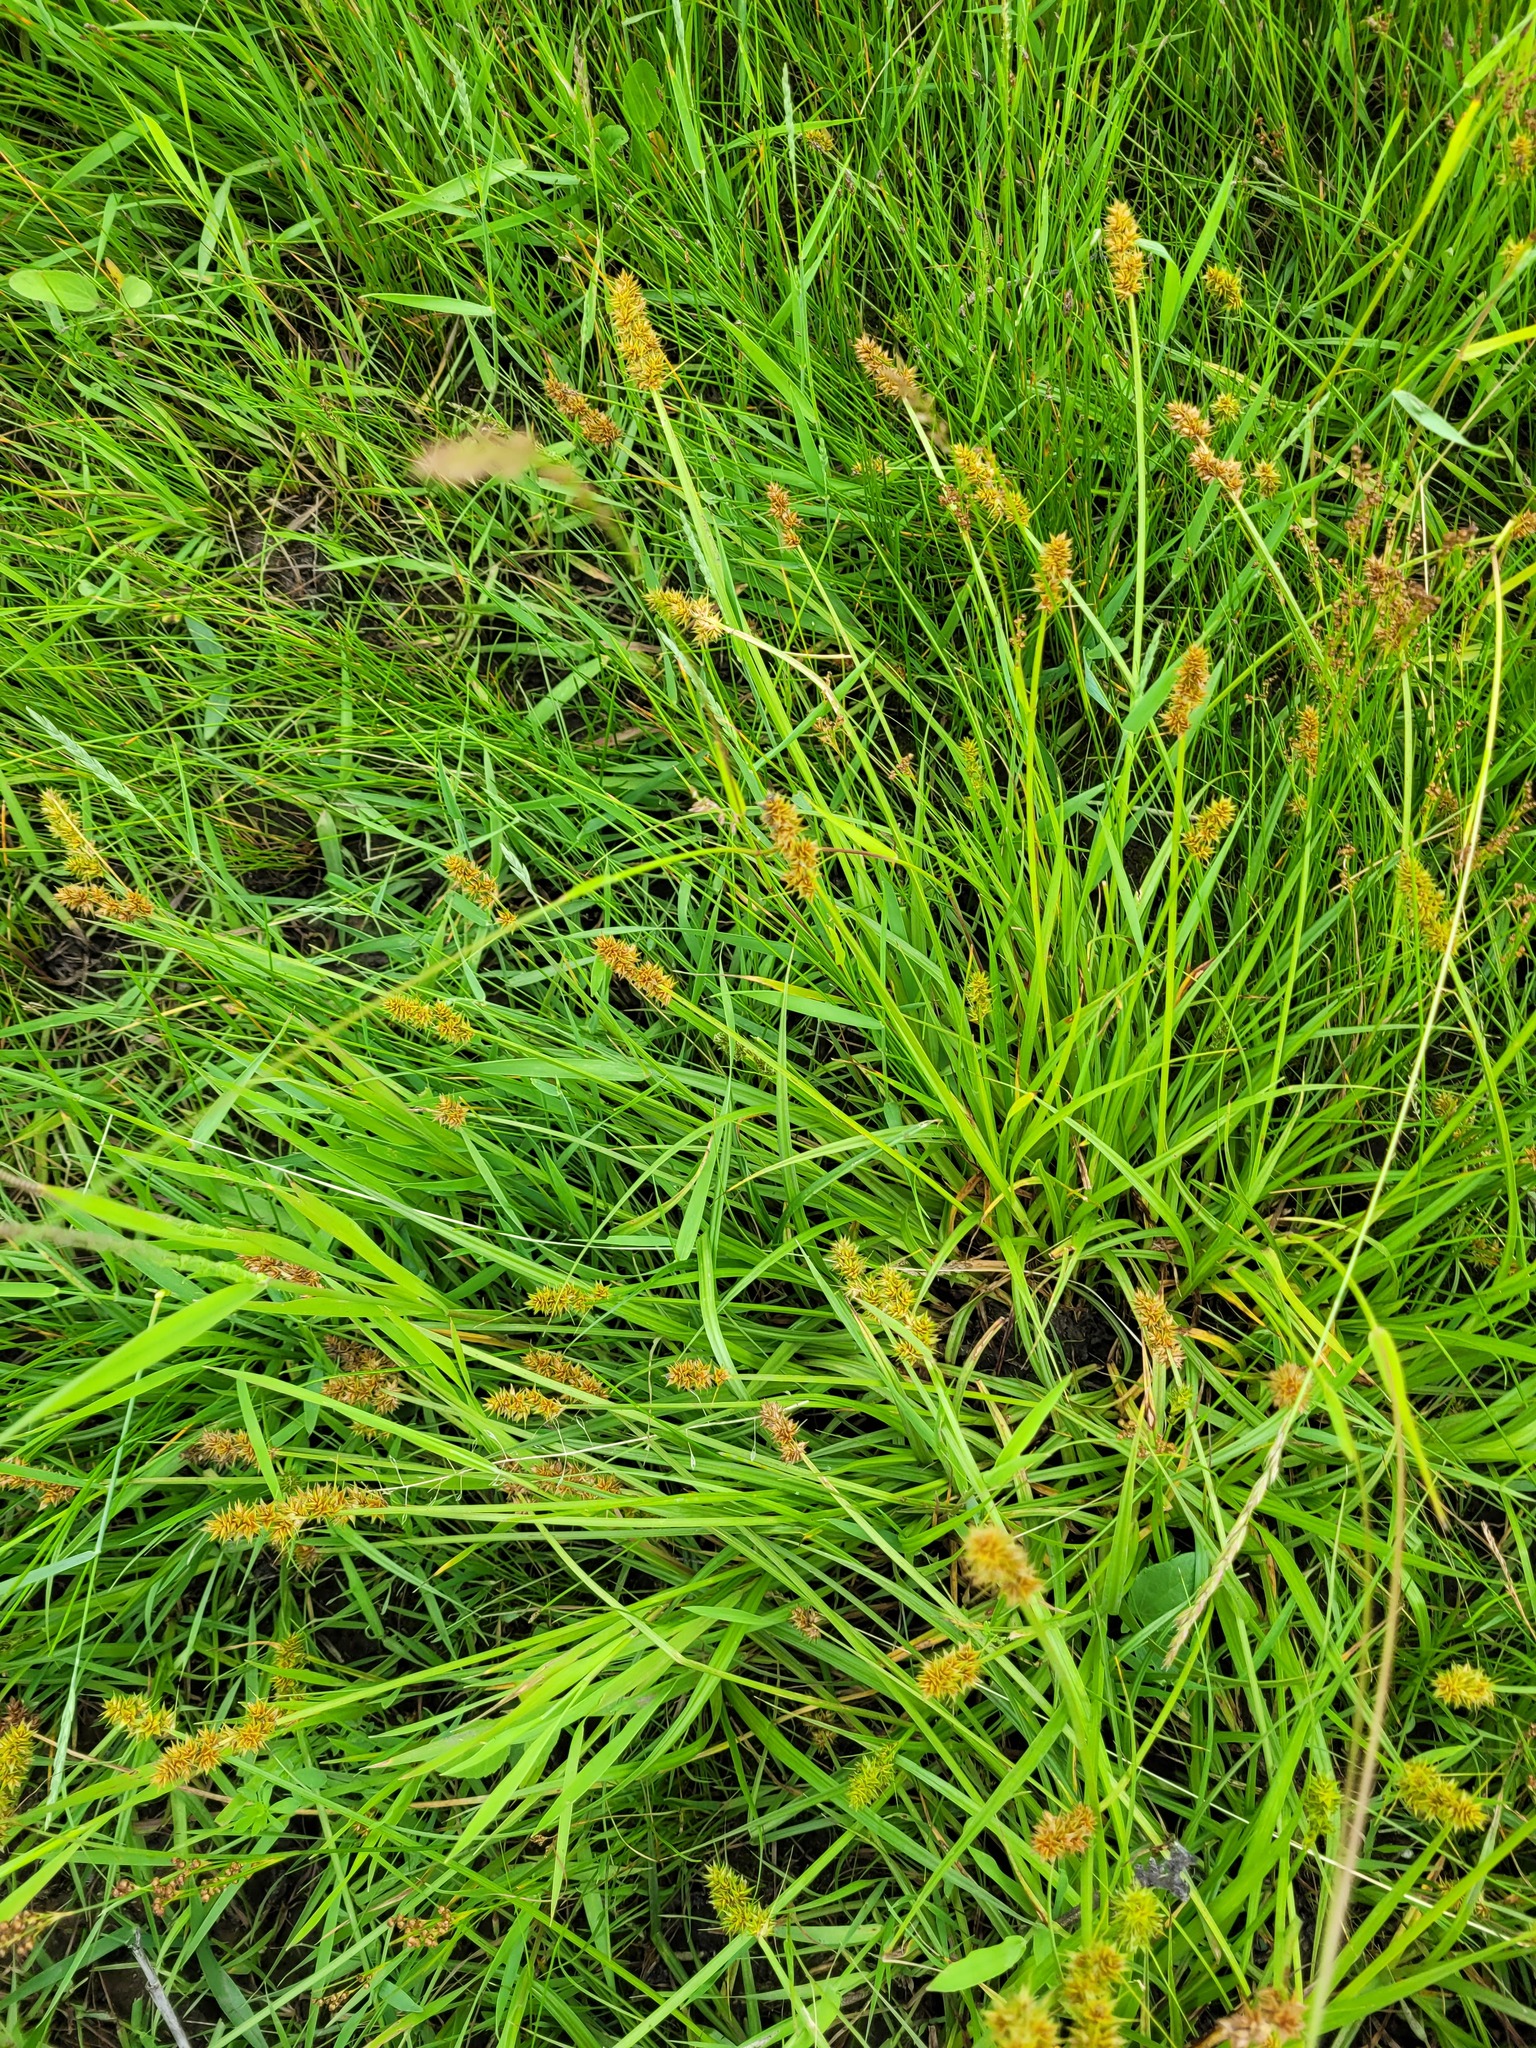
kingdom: Plantae
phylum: Tracheophyta
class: Liliopsida
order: Poales
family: Cyperaceae
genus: Carex
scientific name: Carex vulpina
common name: True fox-sedge
